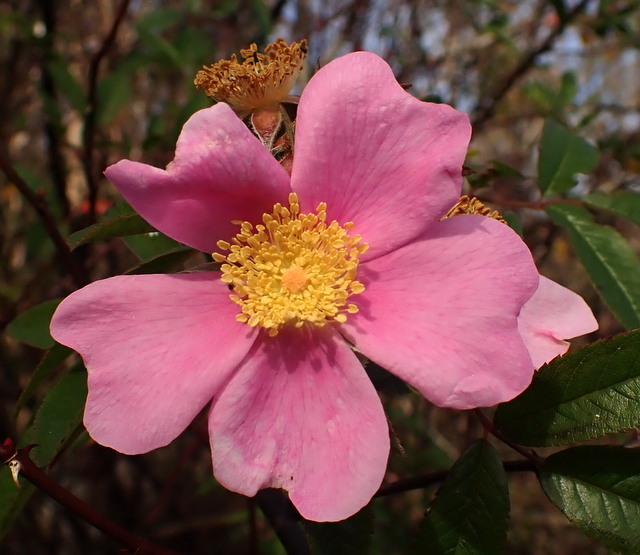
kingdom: Plantae
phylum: Tracheophyta
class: Magnoliopsida
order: Rosales
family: Rosaceae
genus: Rosa
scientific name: Rosa palustris
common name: Swamp rose
